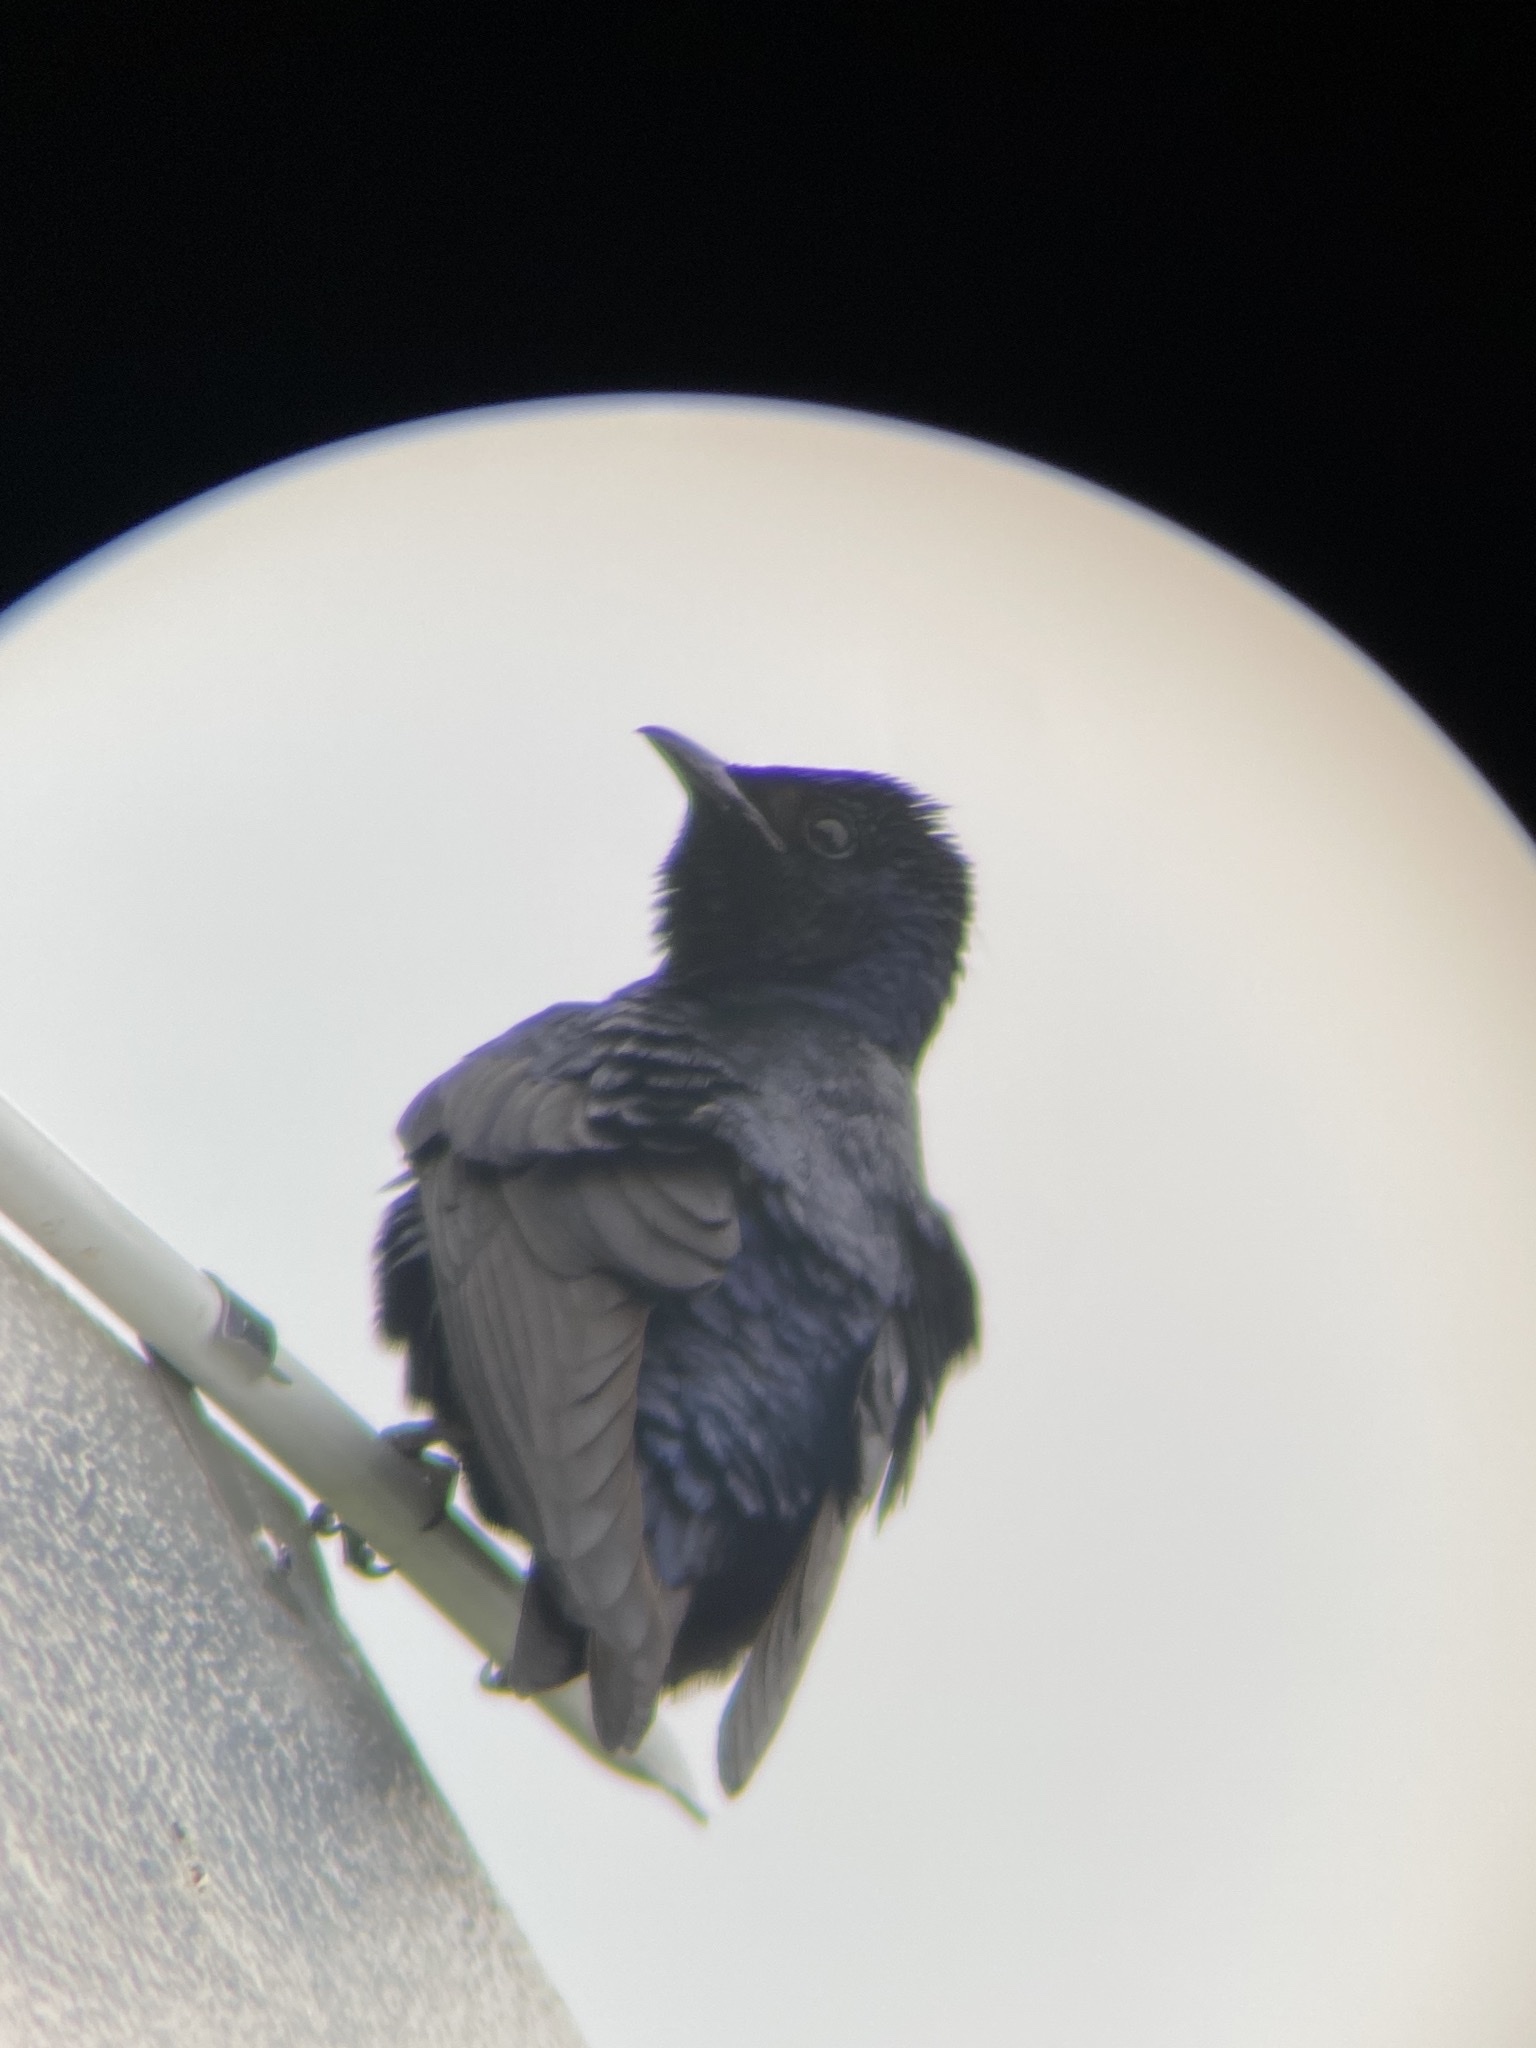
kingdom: Animalia
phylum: Chordata
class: Aves
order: Passeriformes
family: Hirundinidae
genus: Progne
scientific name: Progne subis
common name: Purple martin
